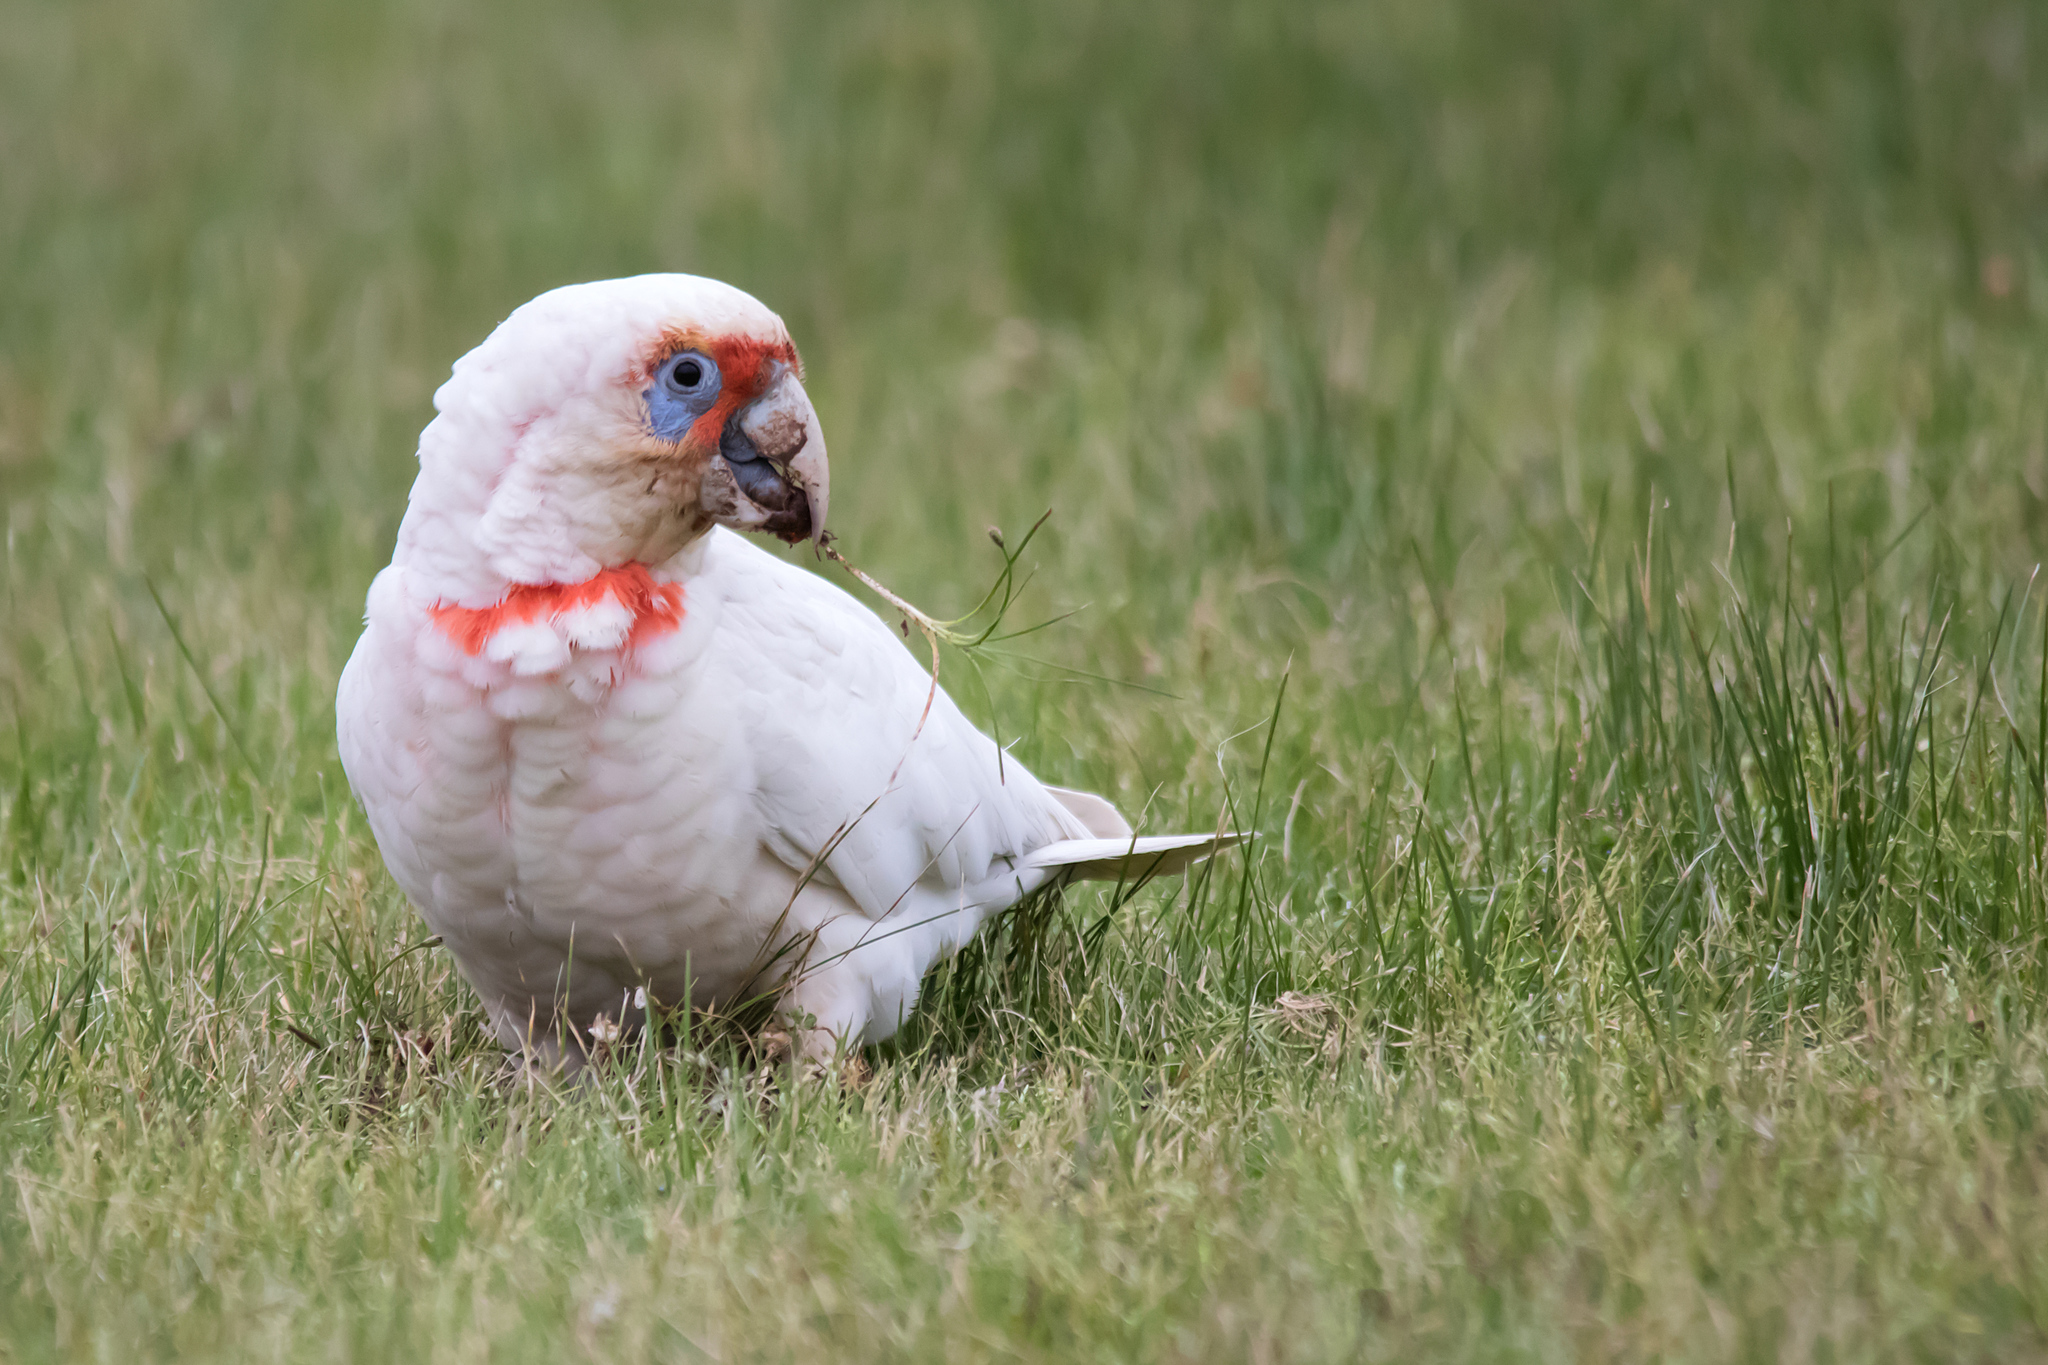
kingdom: Animalia
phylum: Chordata
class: Aves
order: Psittaciformes
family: Psittacidae
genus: Cacatua
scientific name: Cacatua tenuirostris
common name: Long-billed corella
